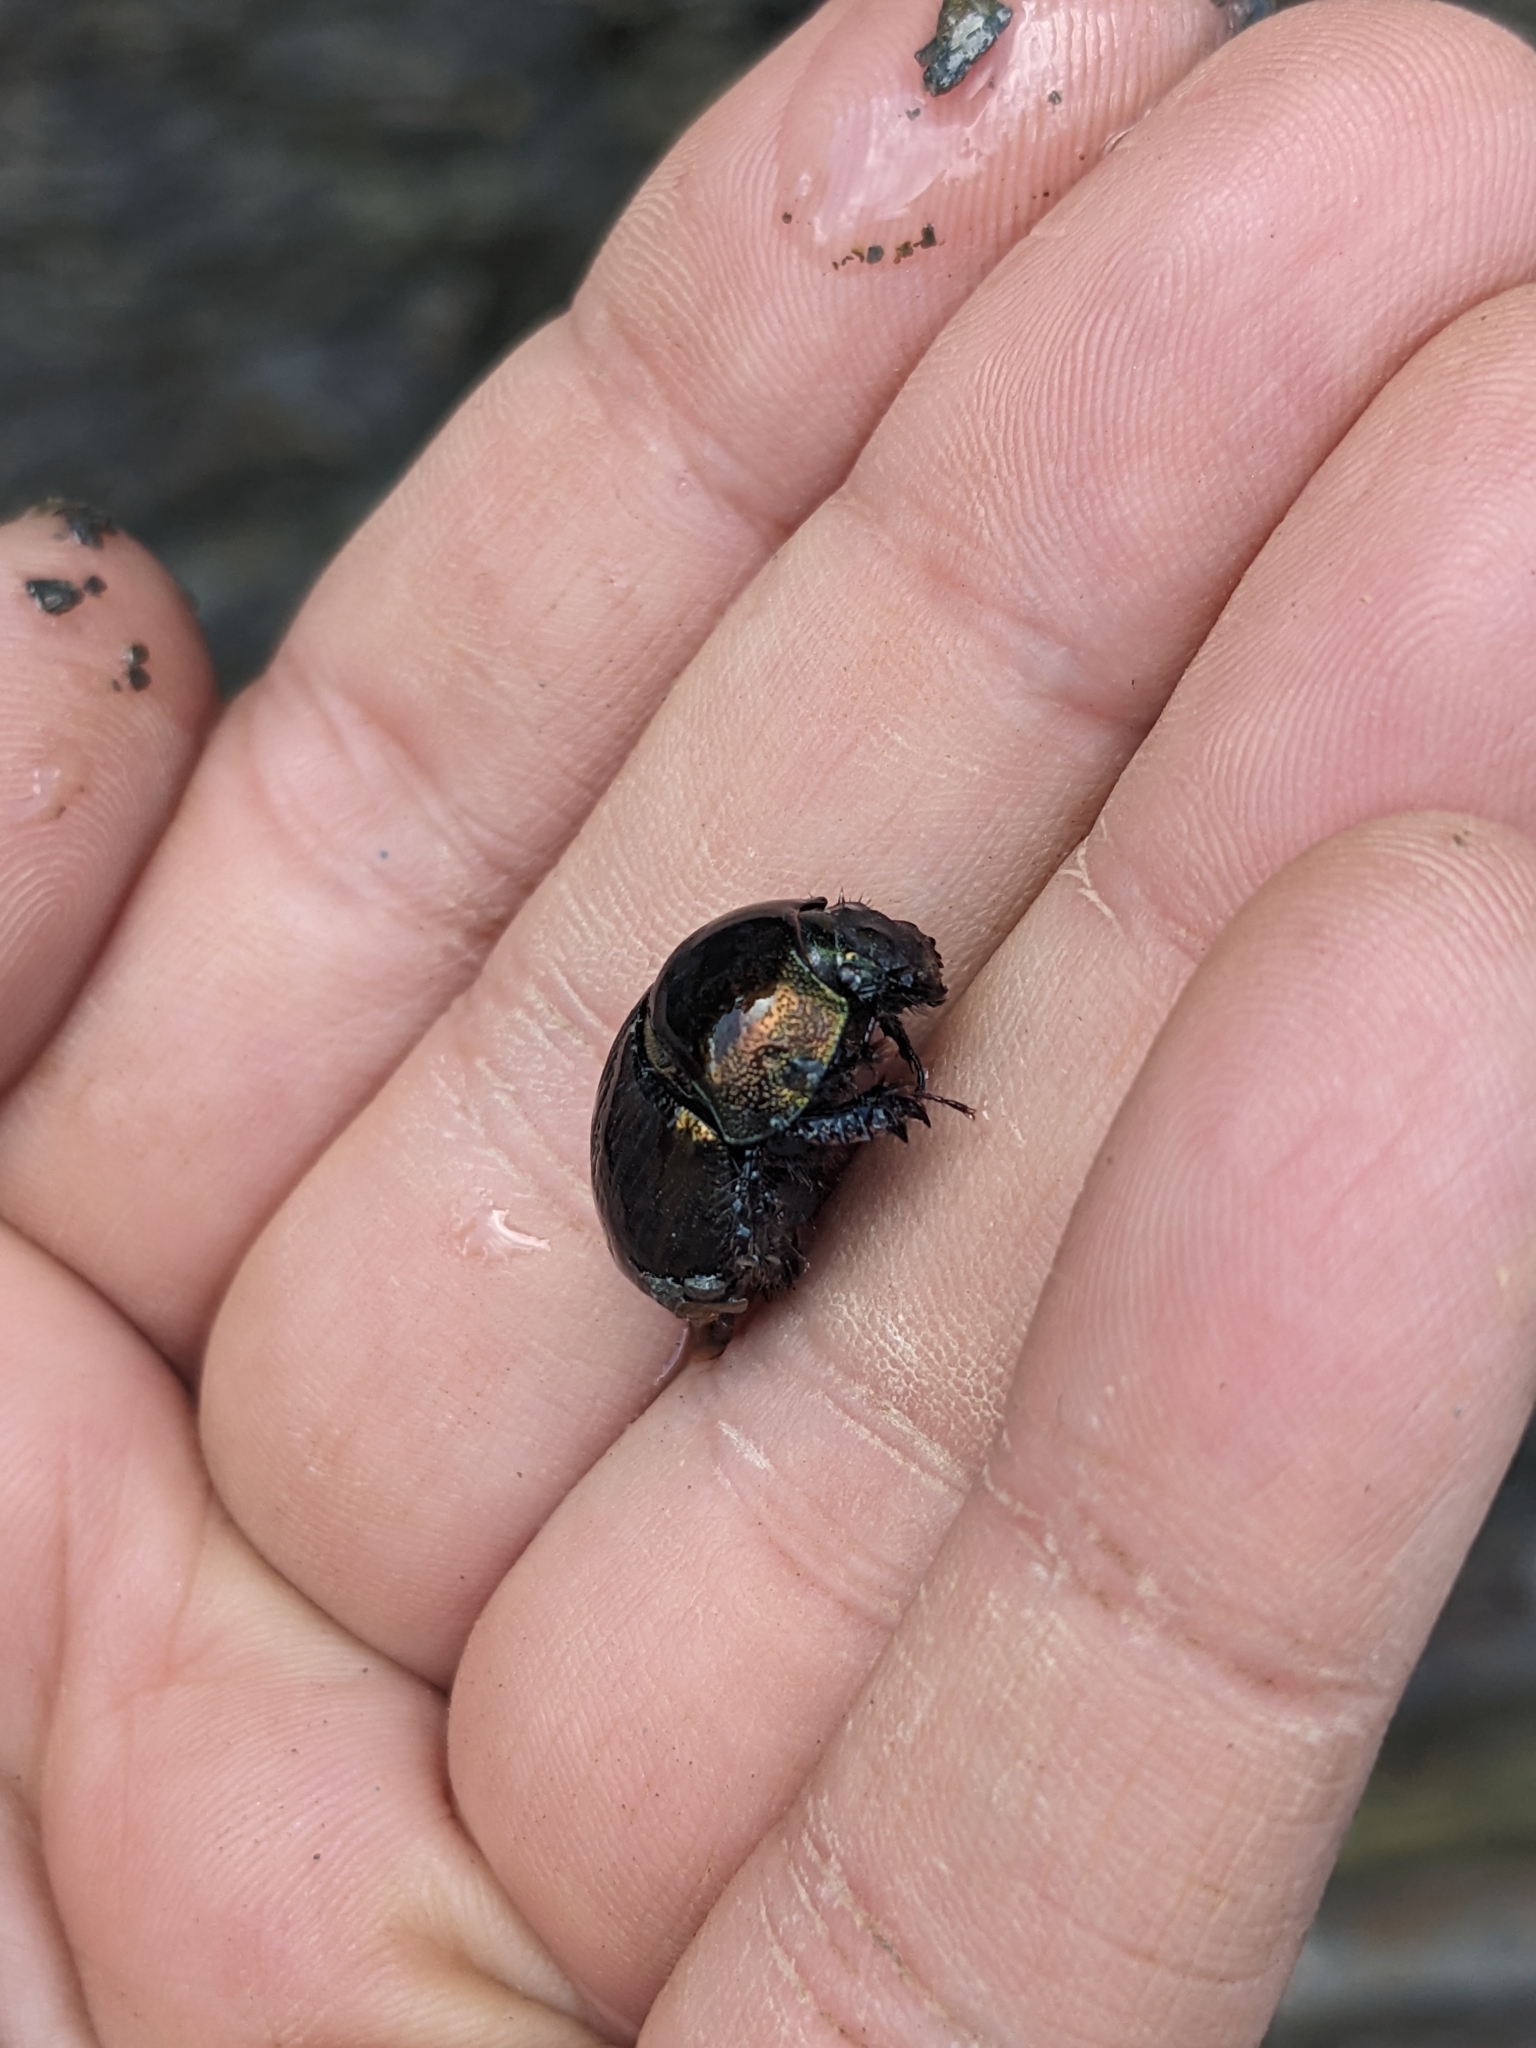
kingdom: Animalia
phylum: Arthropoda
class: Insecta
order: Coleoptera
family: Geotrupidae
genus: Geotrupes
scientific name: Geotrupes splendidus
